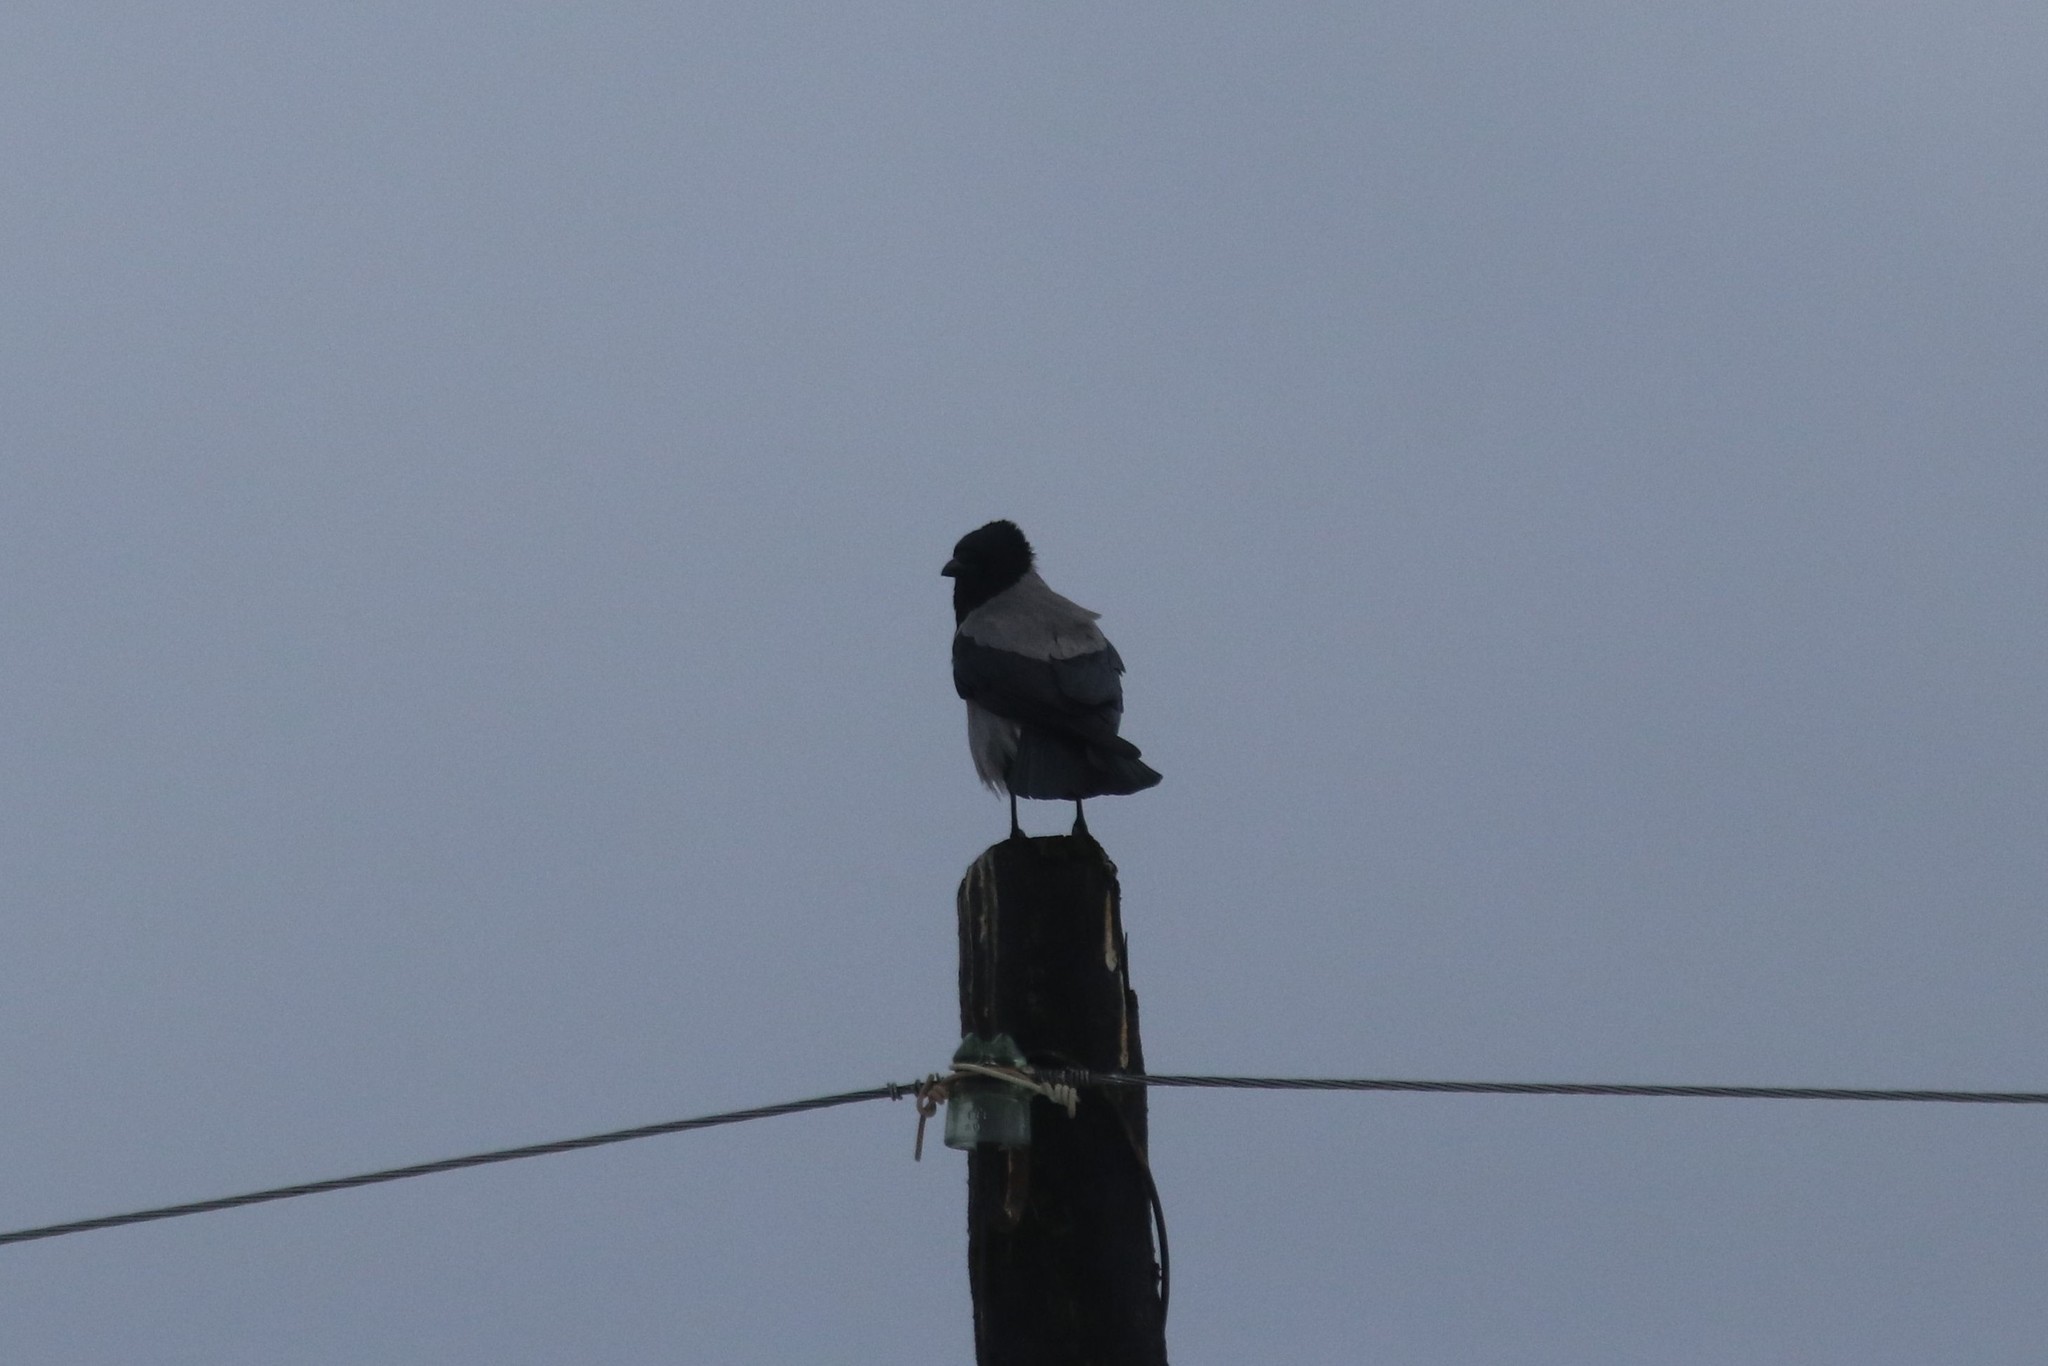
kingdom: Animalia
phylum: Chordata
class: Aves
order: Passeriformes
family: Corvidae
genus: Corvus
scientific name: Corvus cornix
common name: Hooded crow
